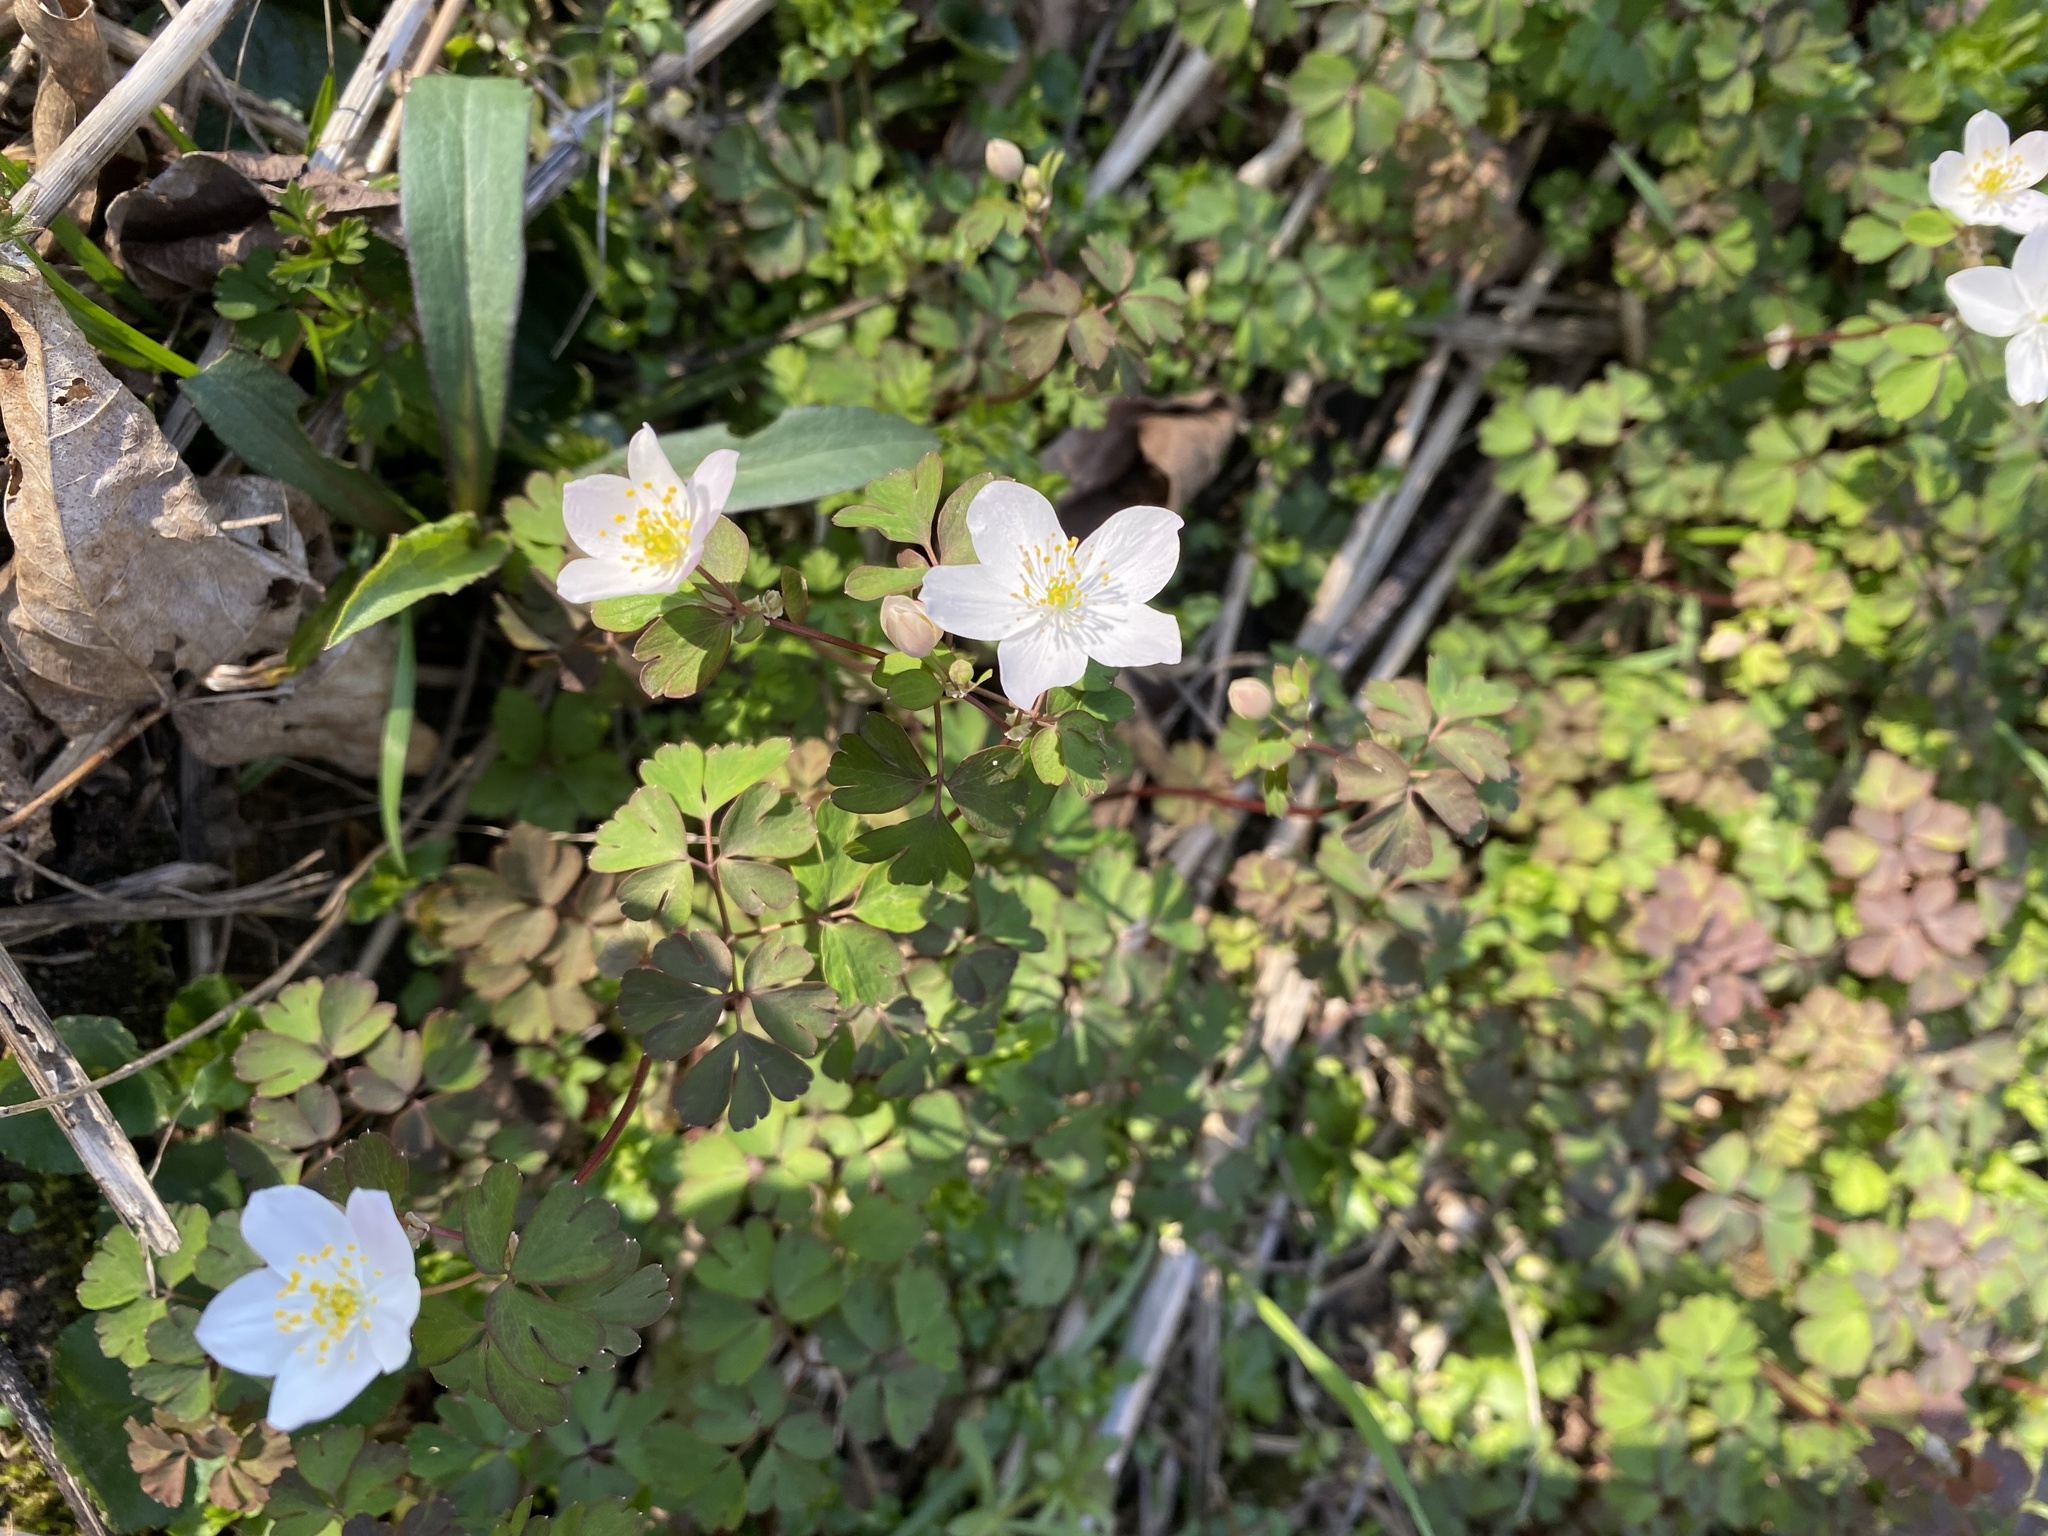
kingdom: Plantae
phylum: Tracheophyta
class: Magnoliopsida
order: Ranunculales
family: Ranunculaceae
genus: Enemion
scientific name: Enemion biternatum
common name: Eastern false rue-anemone
